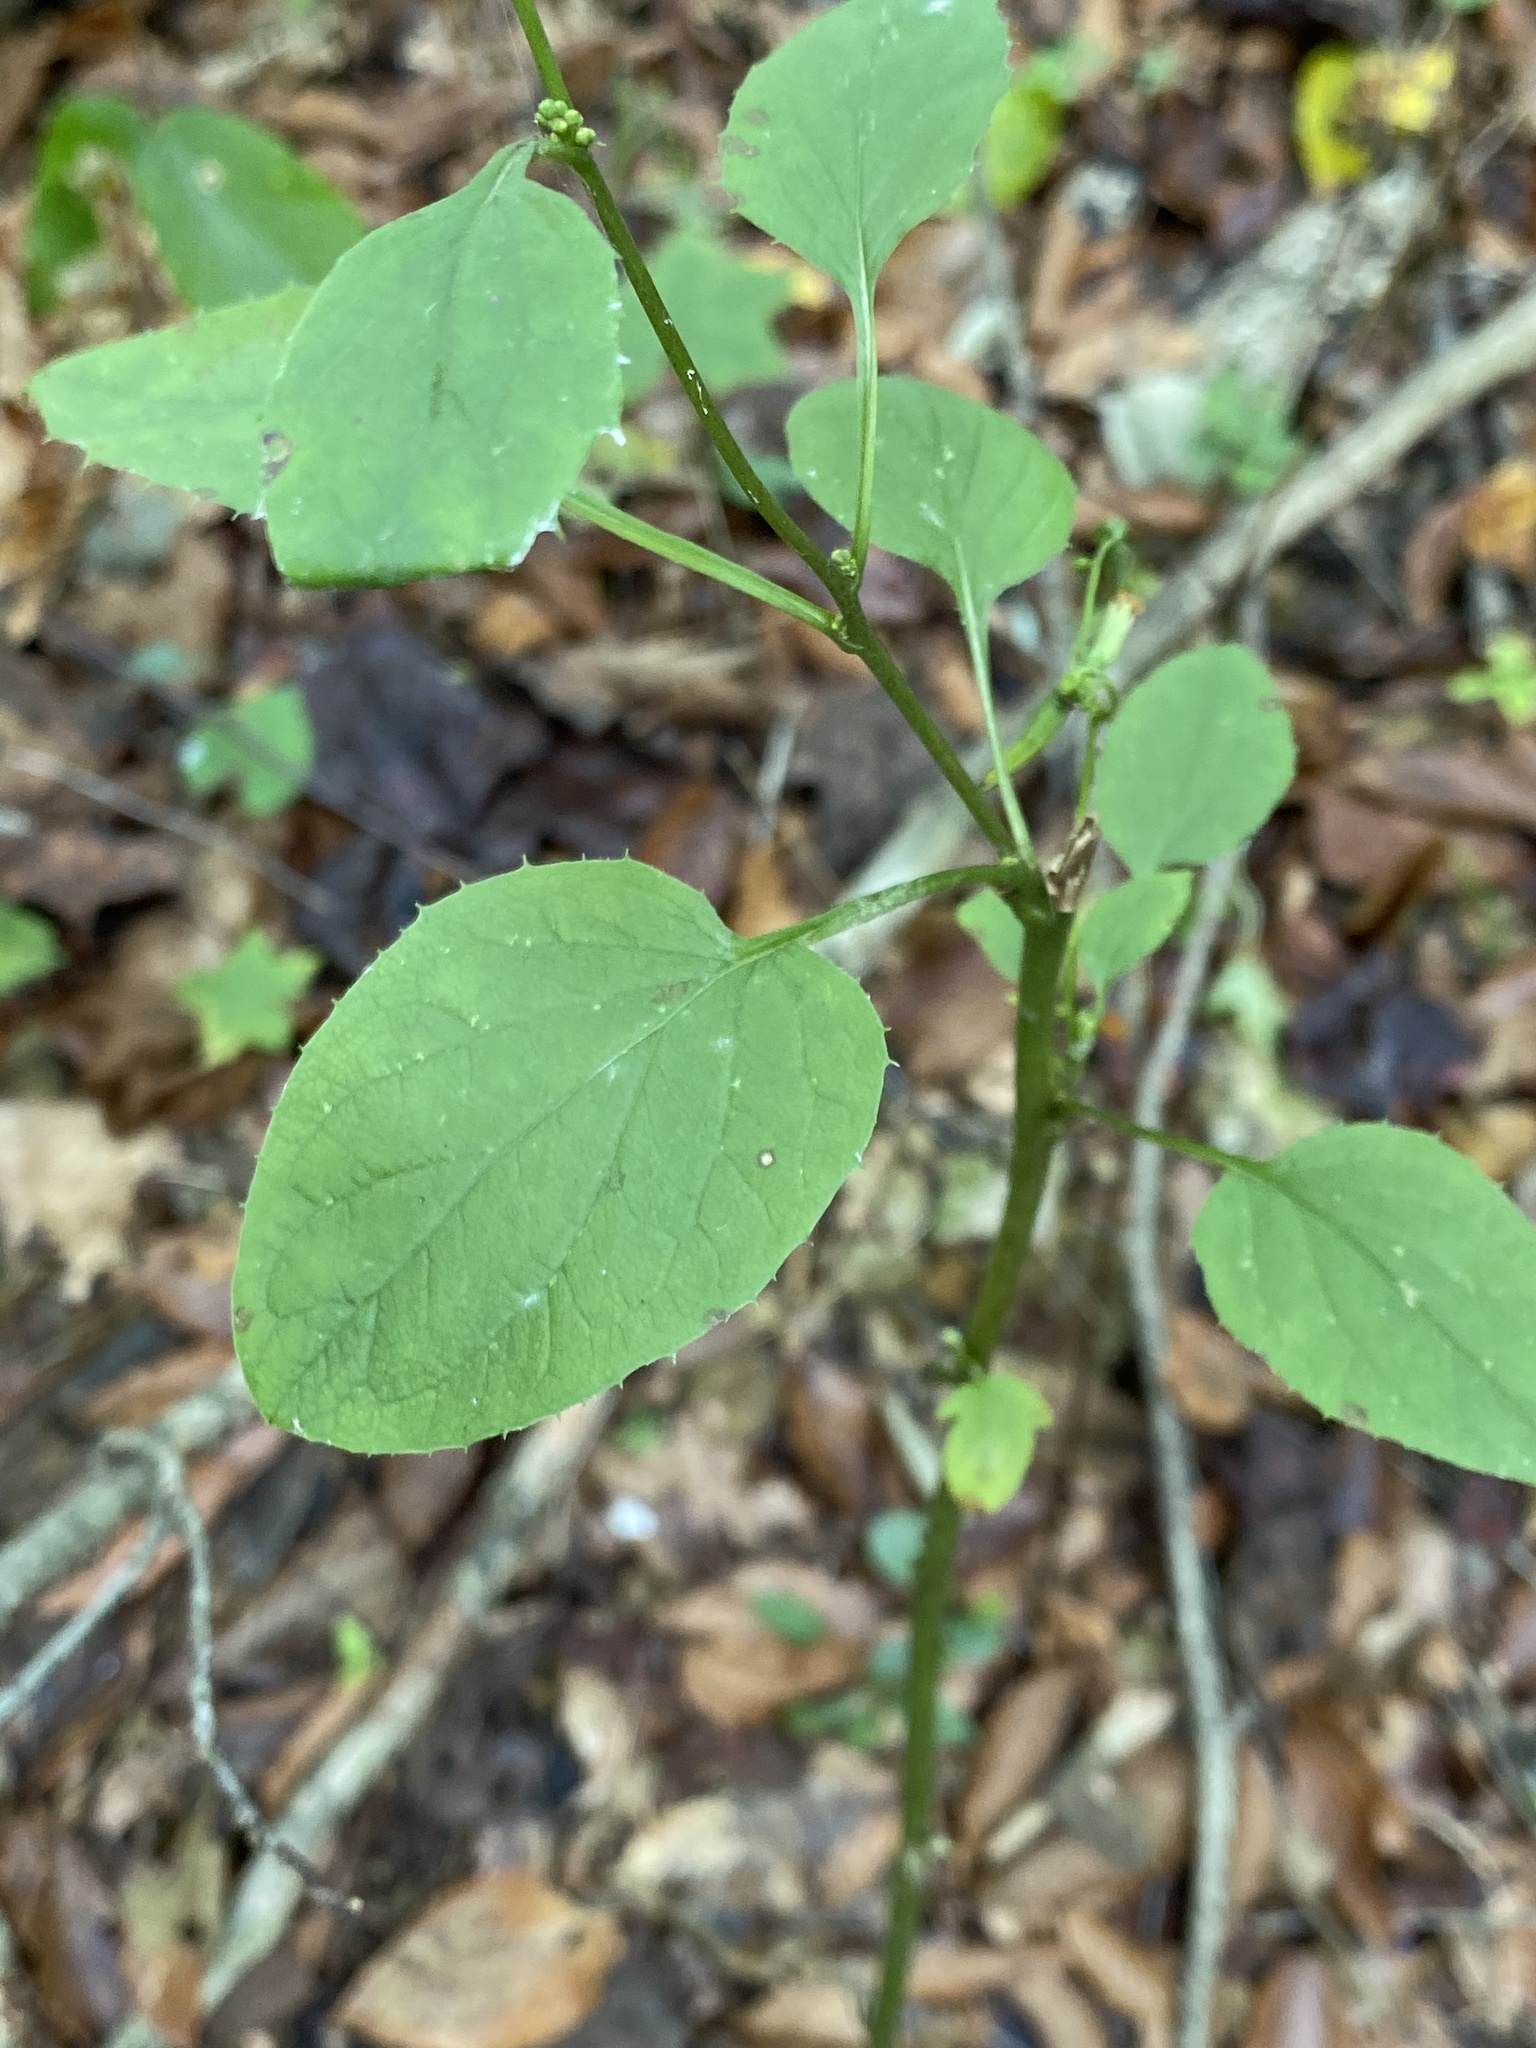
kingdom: Plantae
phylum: Tracheophyta
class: Magnoliopsida
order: Asterales
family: Asteraceae
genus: Nabalus
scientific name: Nabalus altissima
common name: Tall rattlesnakeroot
